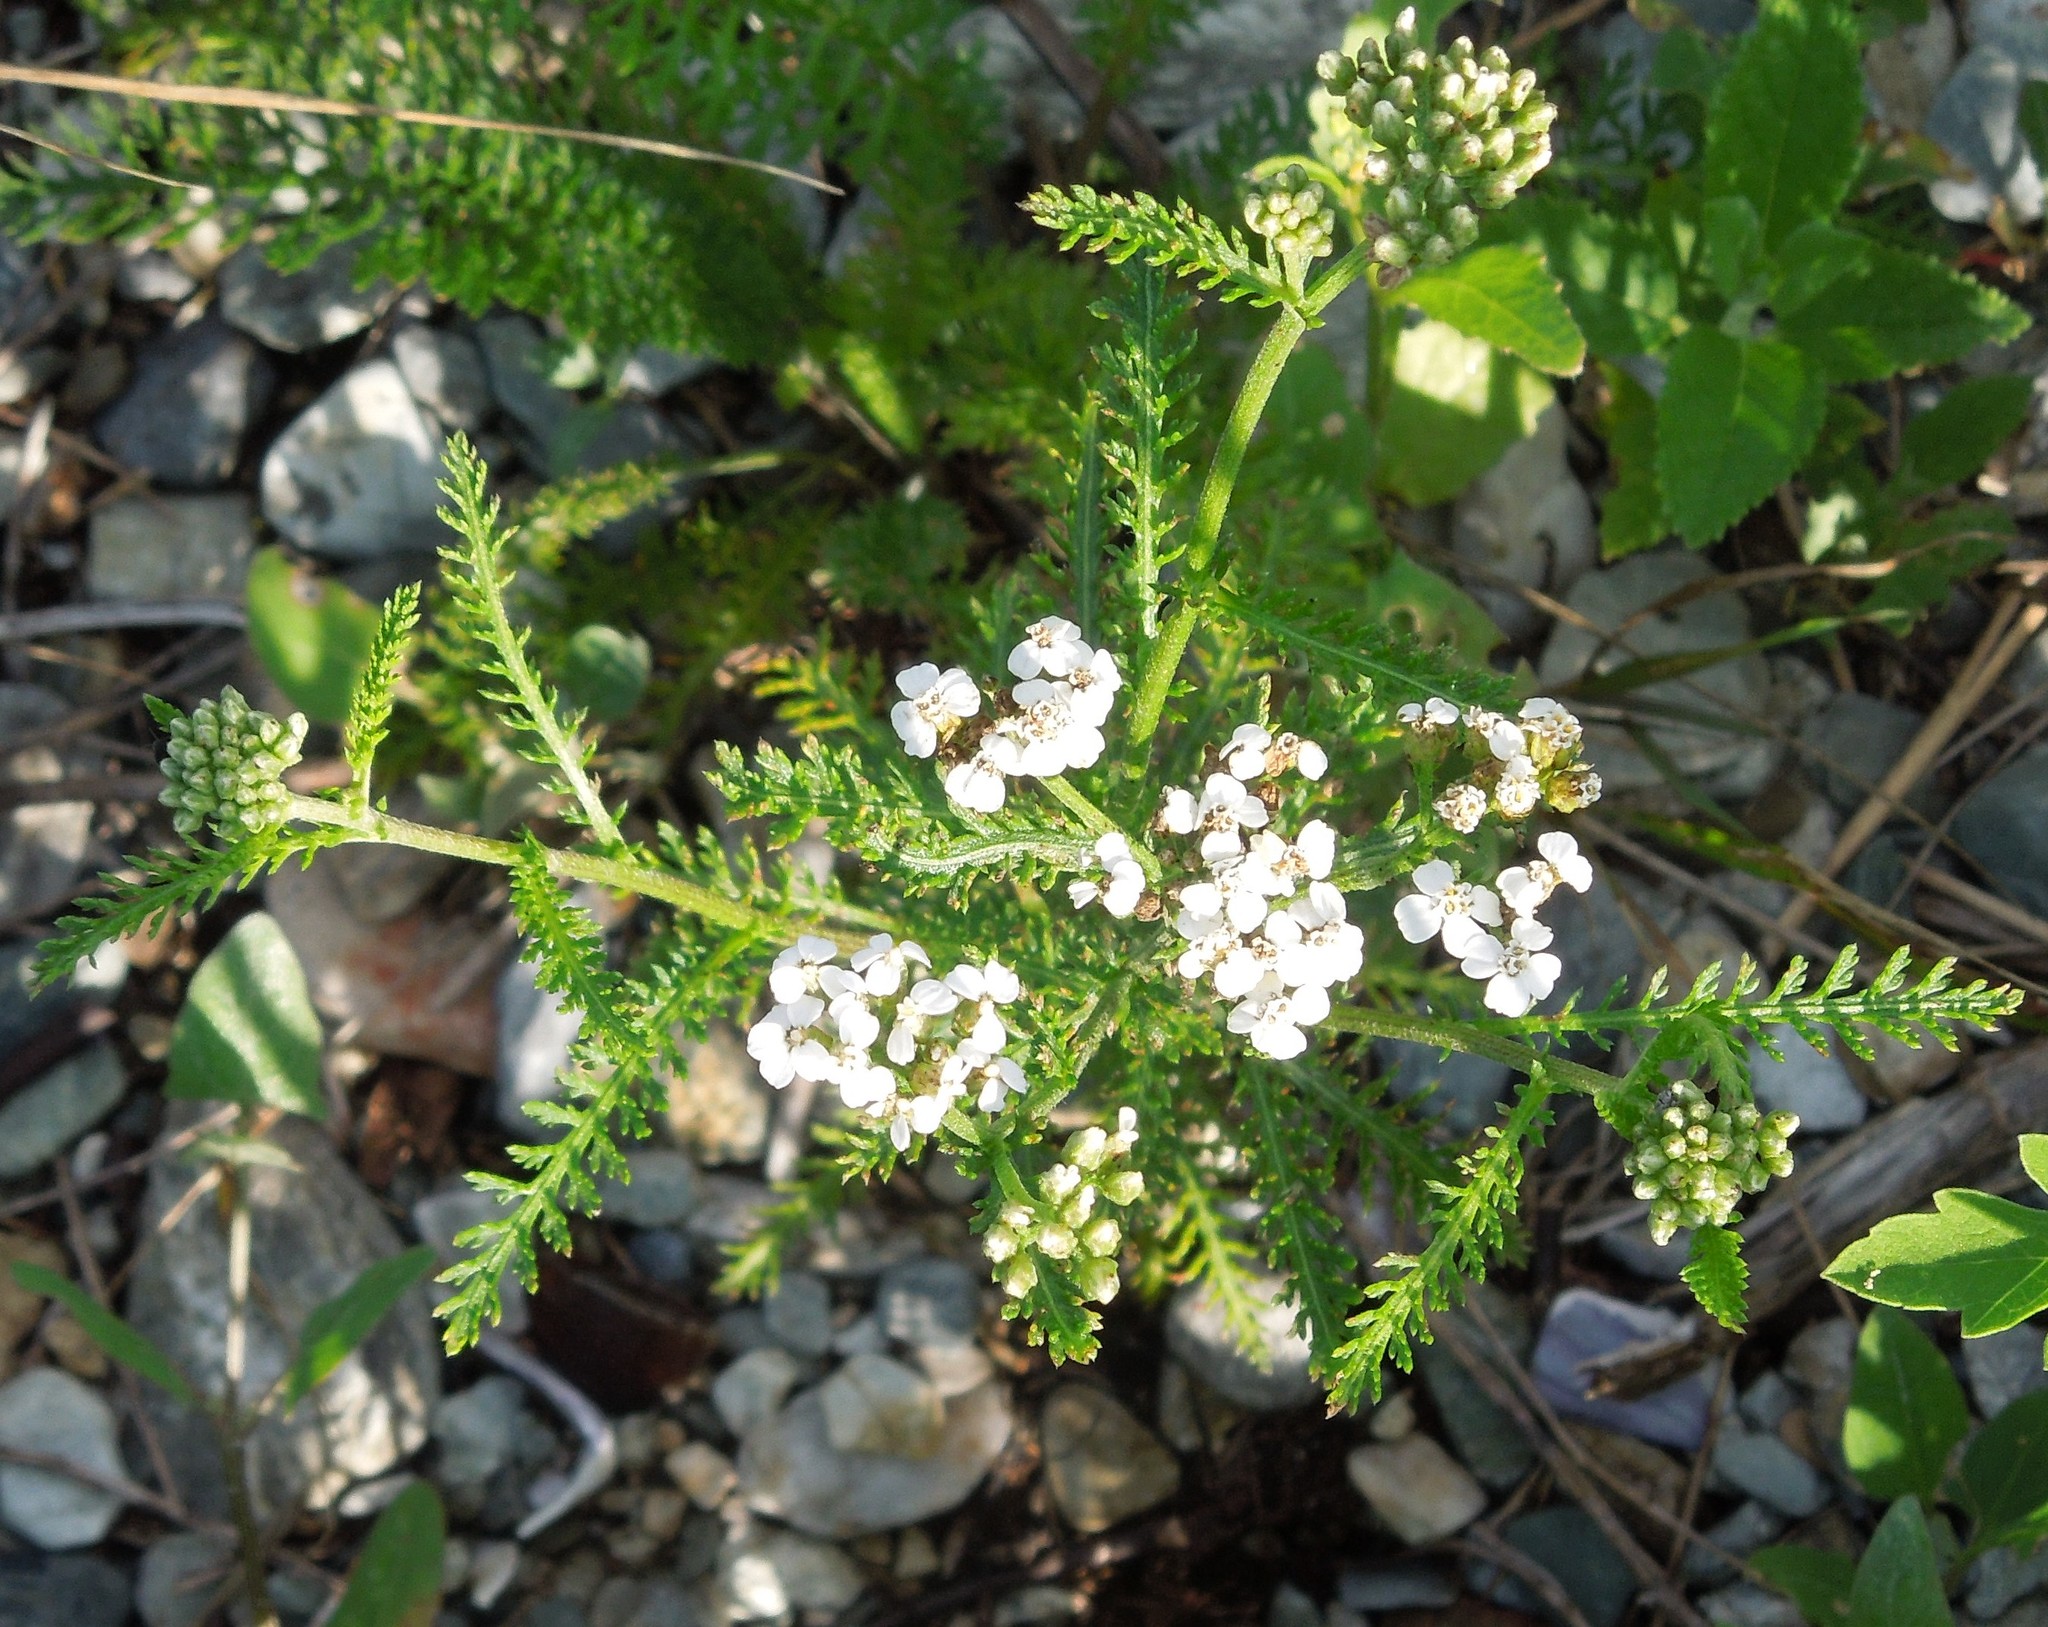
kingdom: Plantae
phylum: Tracheophyta
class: Magnoliopsida
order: Asterales
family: Asteraceae
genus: Achillea
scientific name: Achillea millefolium
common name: Yarrow
